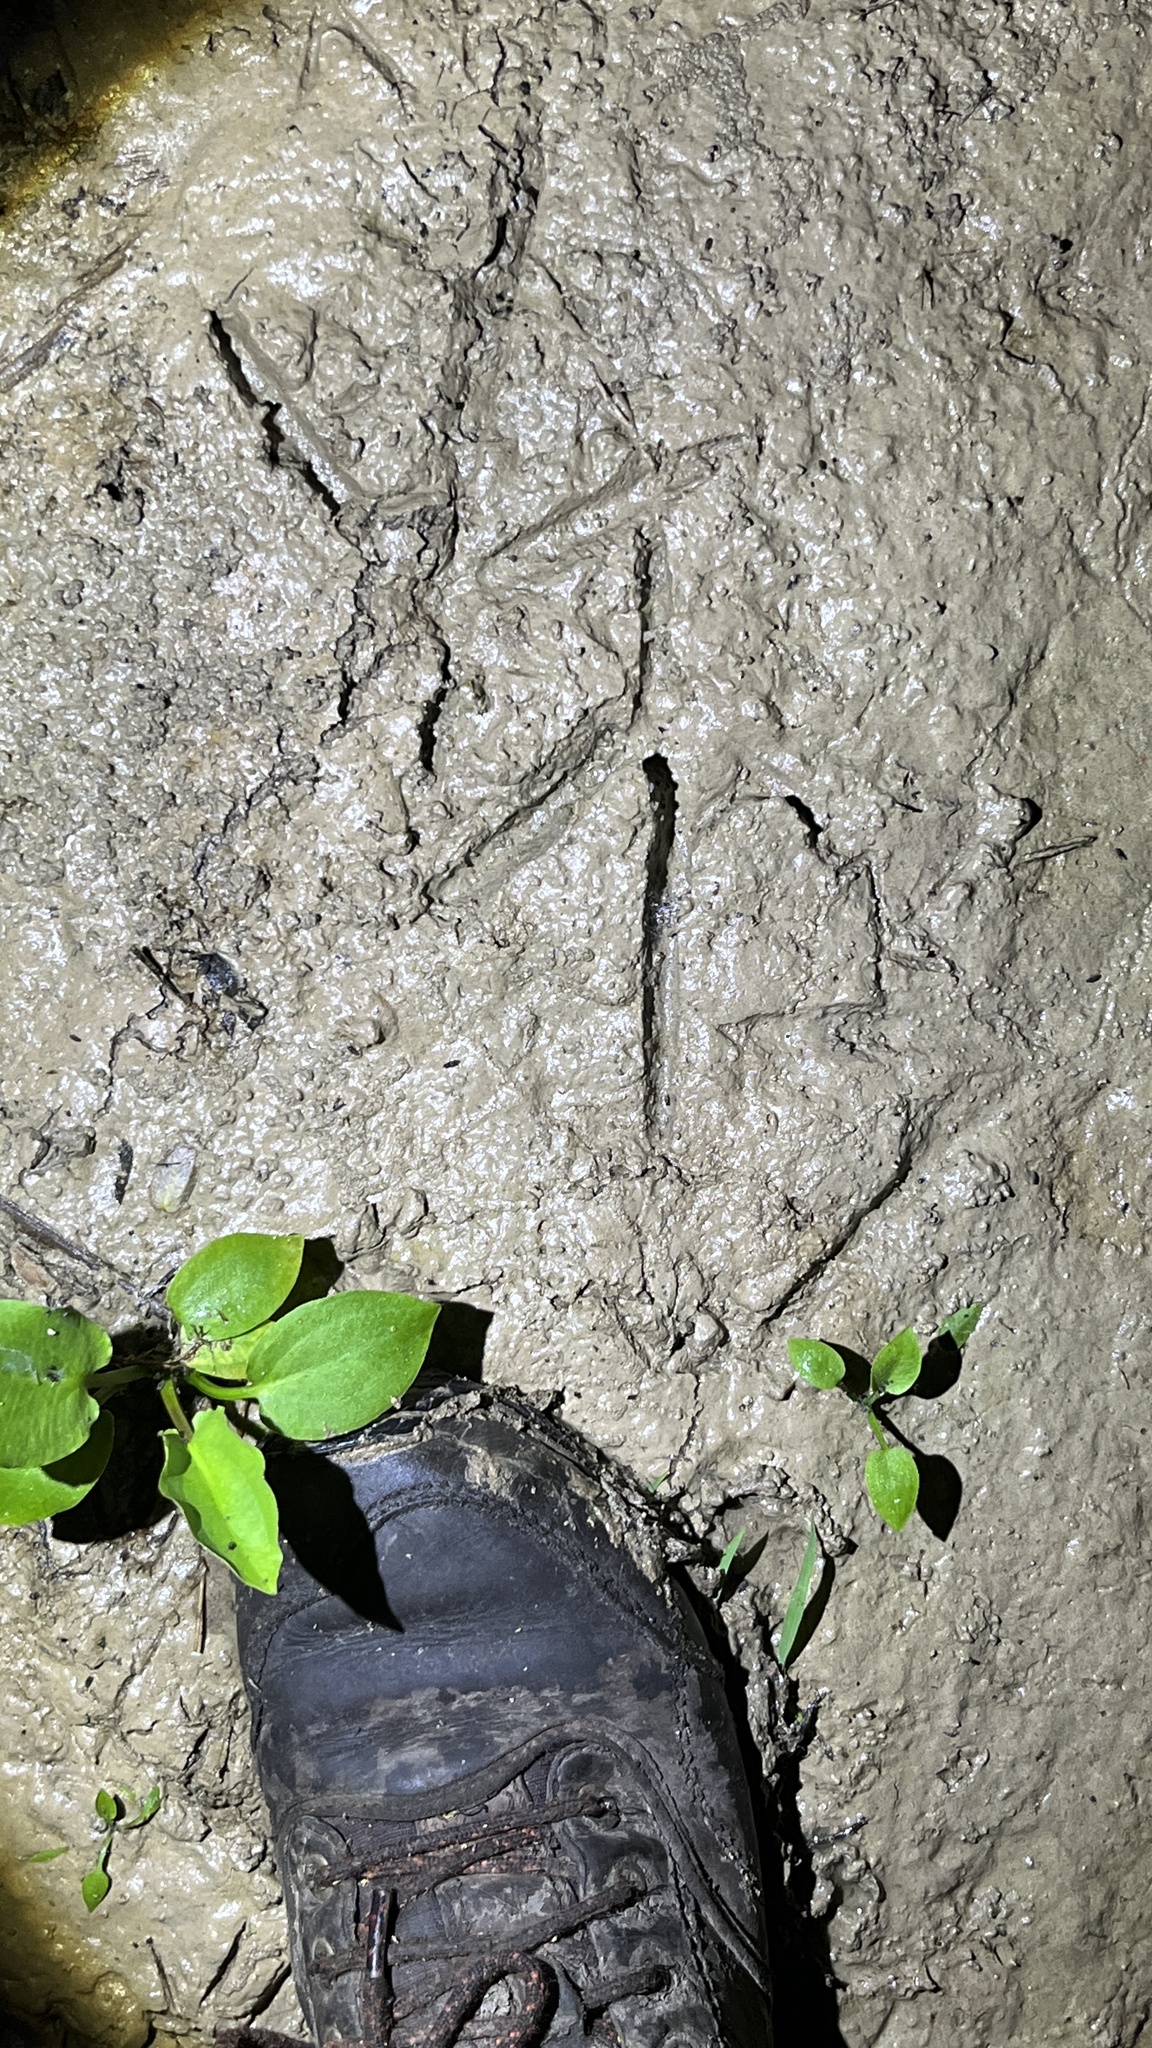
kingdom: Animalia
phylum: Chordata
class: Aves
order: Pelecaniformes
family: Ardeidae
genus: Ardea
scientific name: Ardea cinerea
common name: Grey heron
